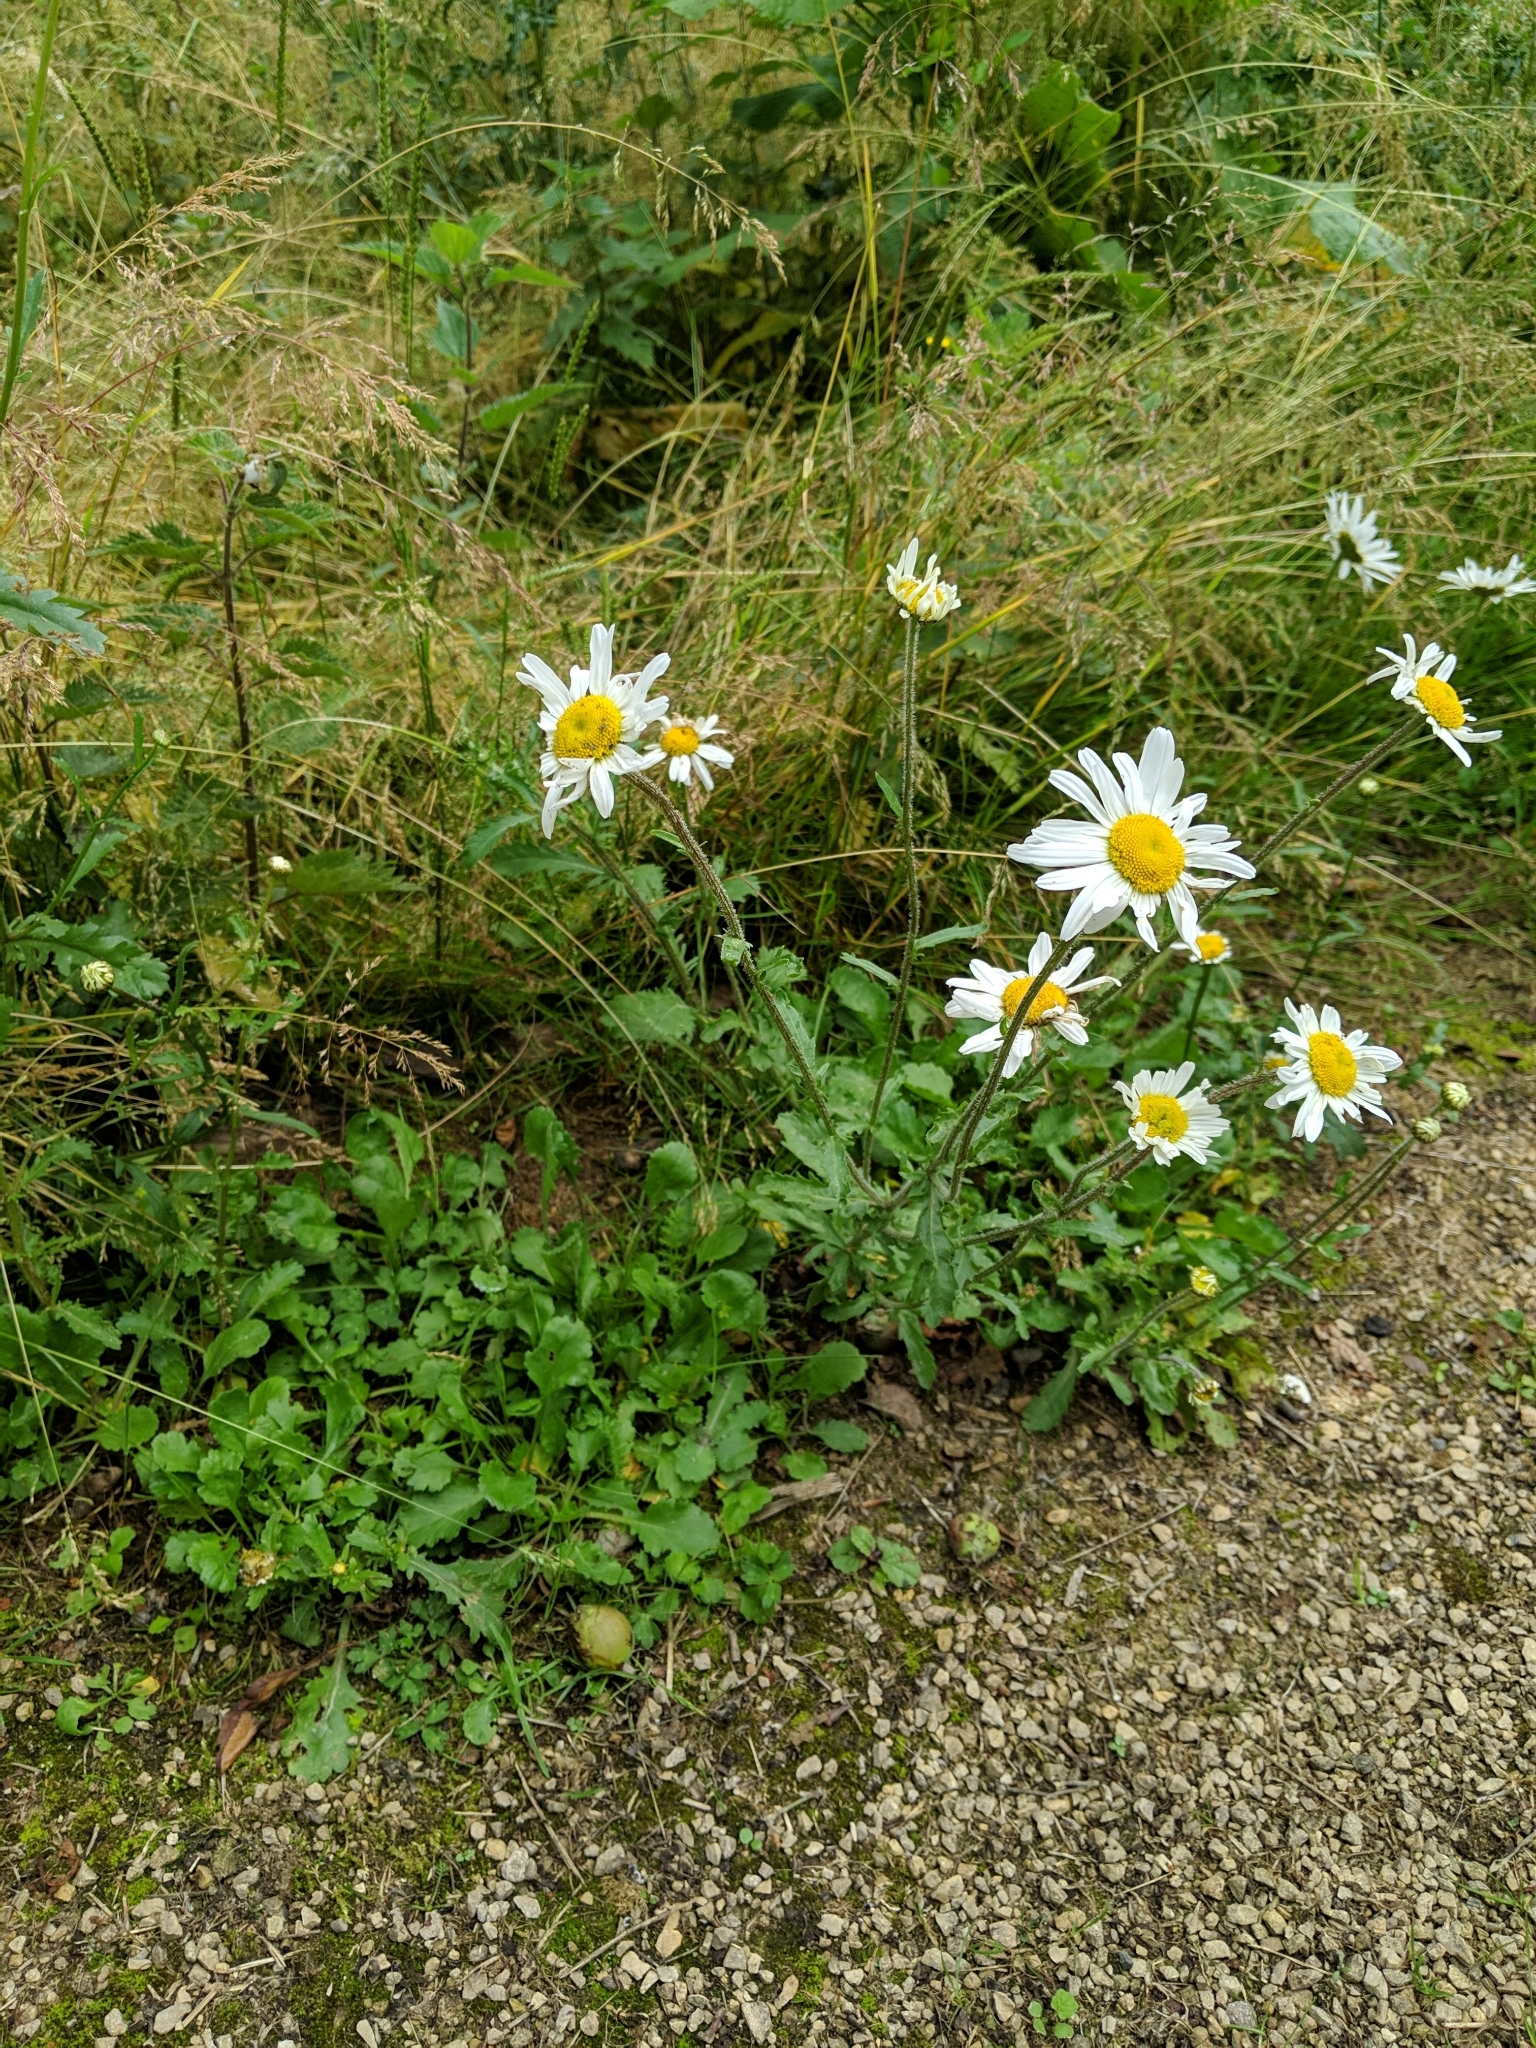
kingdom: Plantae
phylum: Tracheophyta
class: Magnoliopsida
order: Asterales
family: Asteraceae
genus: Leucanthemum
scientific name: Leucanthemum vulgare
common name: Oxeye daisy
